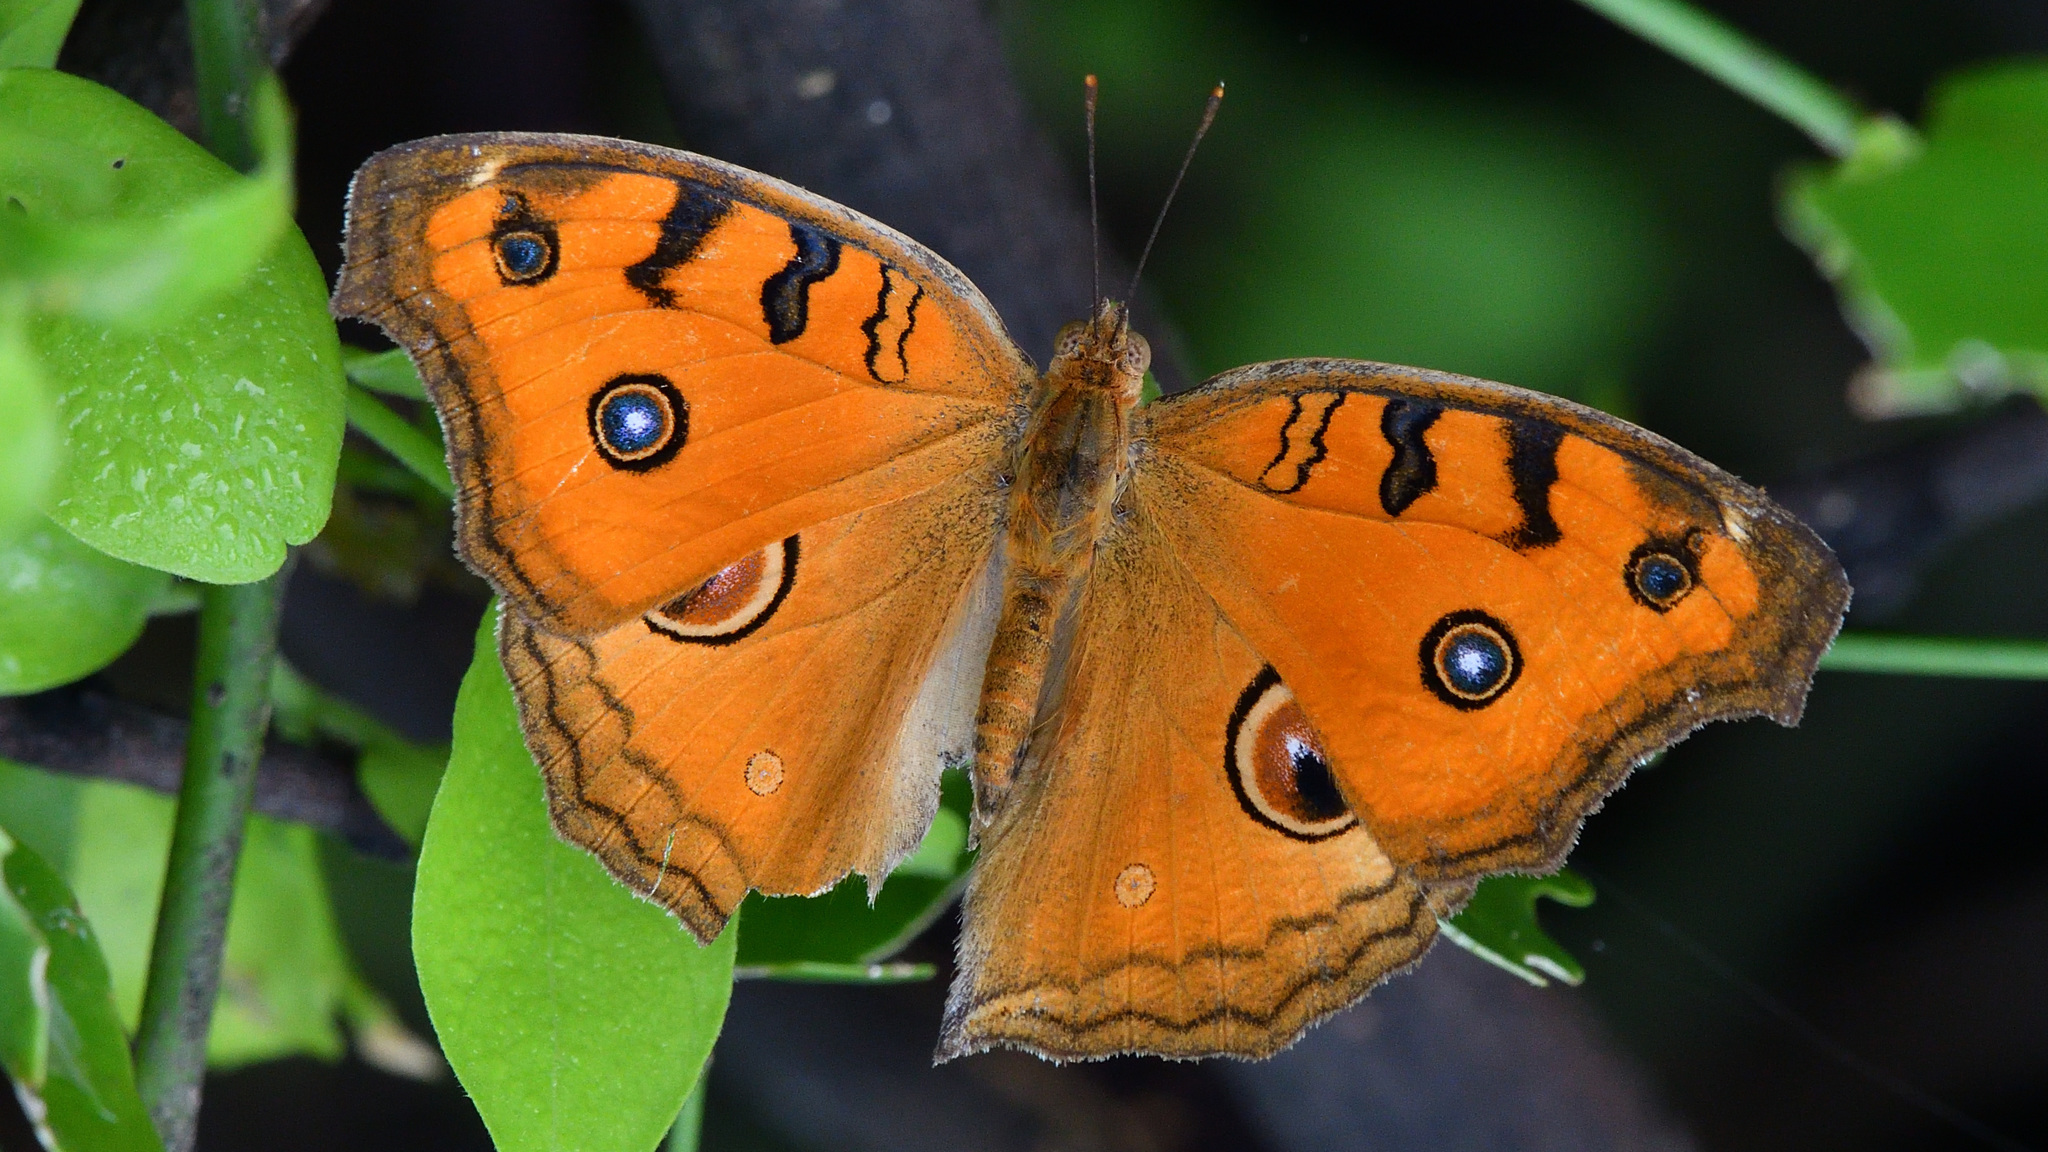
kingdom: Animalia
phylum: Arthropoda
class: Insecta
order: Lepidoptera
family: Nymphalidae
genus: Junonia
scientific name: Junonia almana
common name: Peacock pansy
